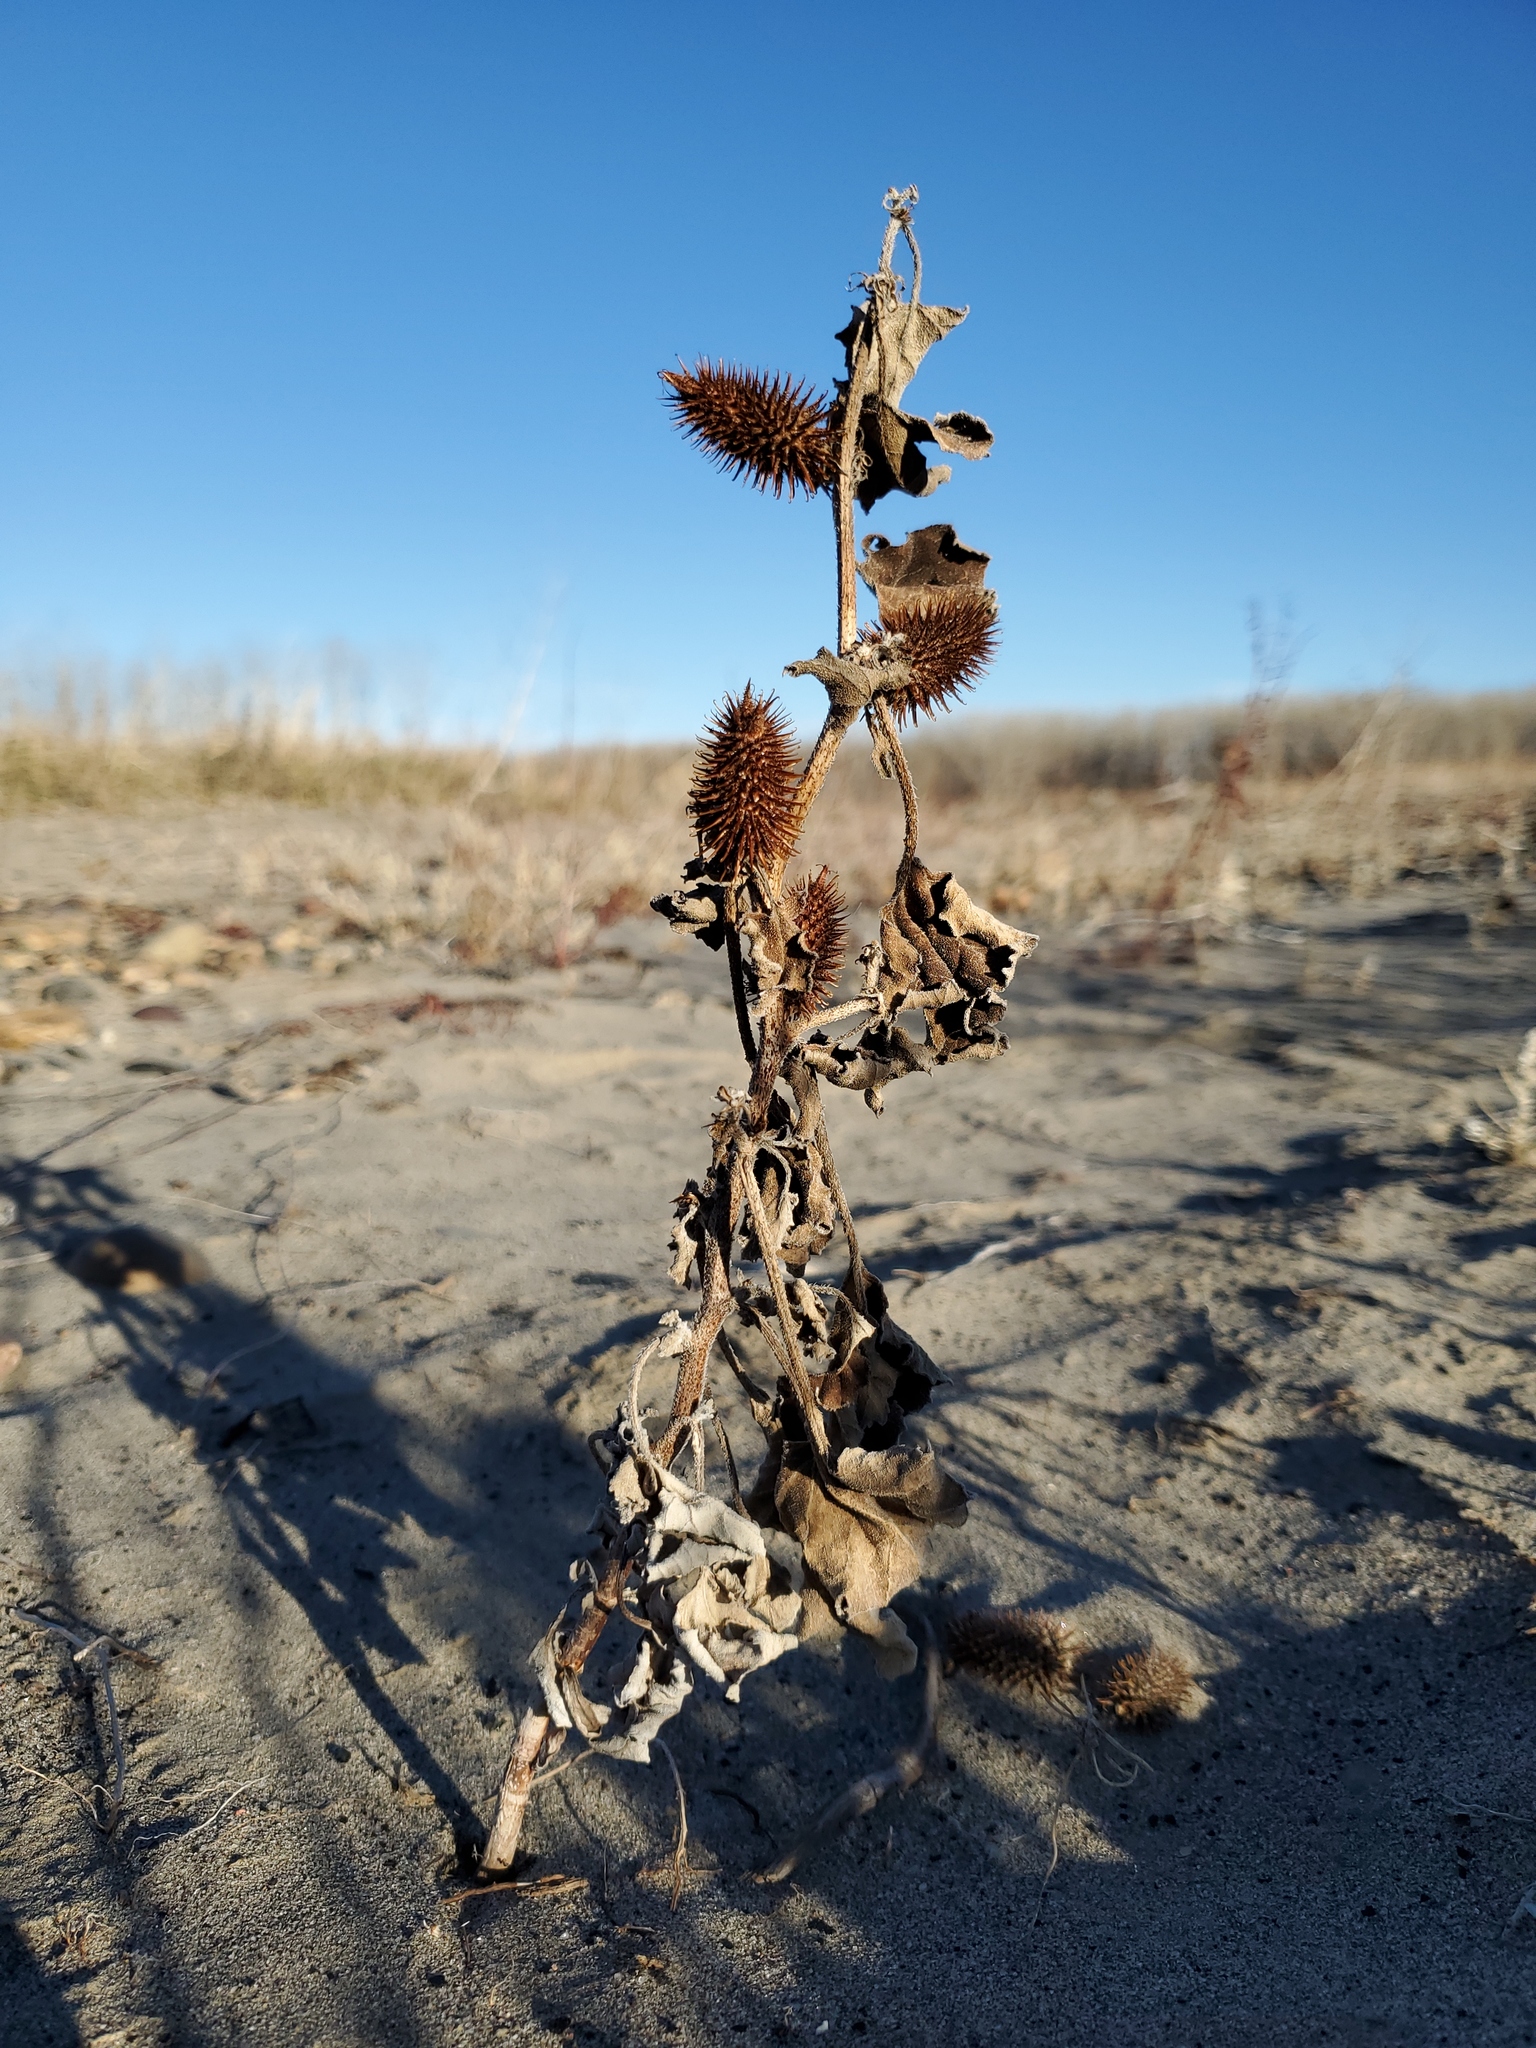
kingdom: Plantae
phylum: Tracheophyta
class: Magnoliopsida
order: Asterales
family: Asteraceae
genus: Xanthium
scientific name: Xanthium strumarium
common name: Rough cocklebur
